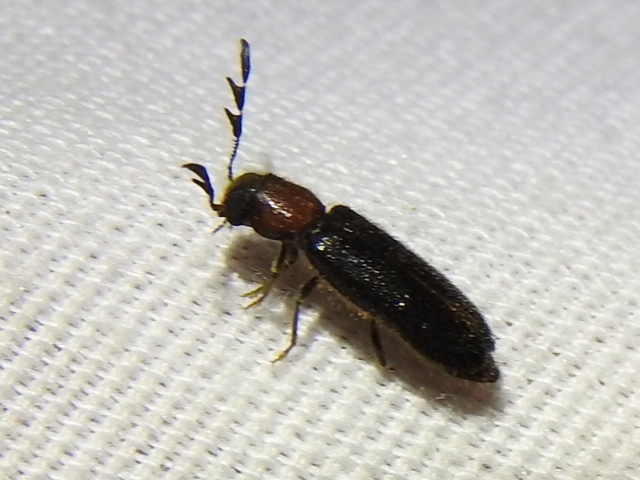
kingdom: Animalia
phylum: Arthropoda
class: Insecta
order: Coleoptera
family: Cleridae
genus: Neorthopleura
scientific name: Neorthopleura texana
